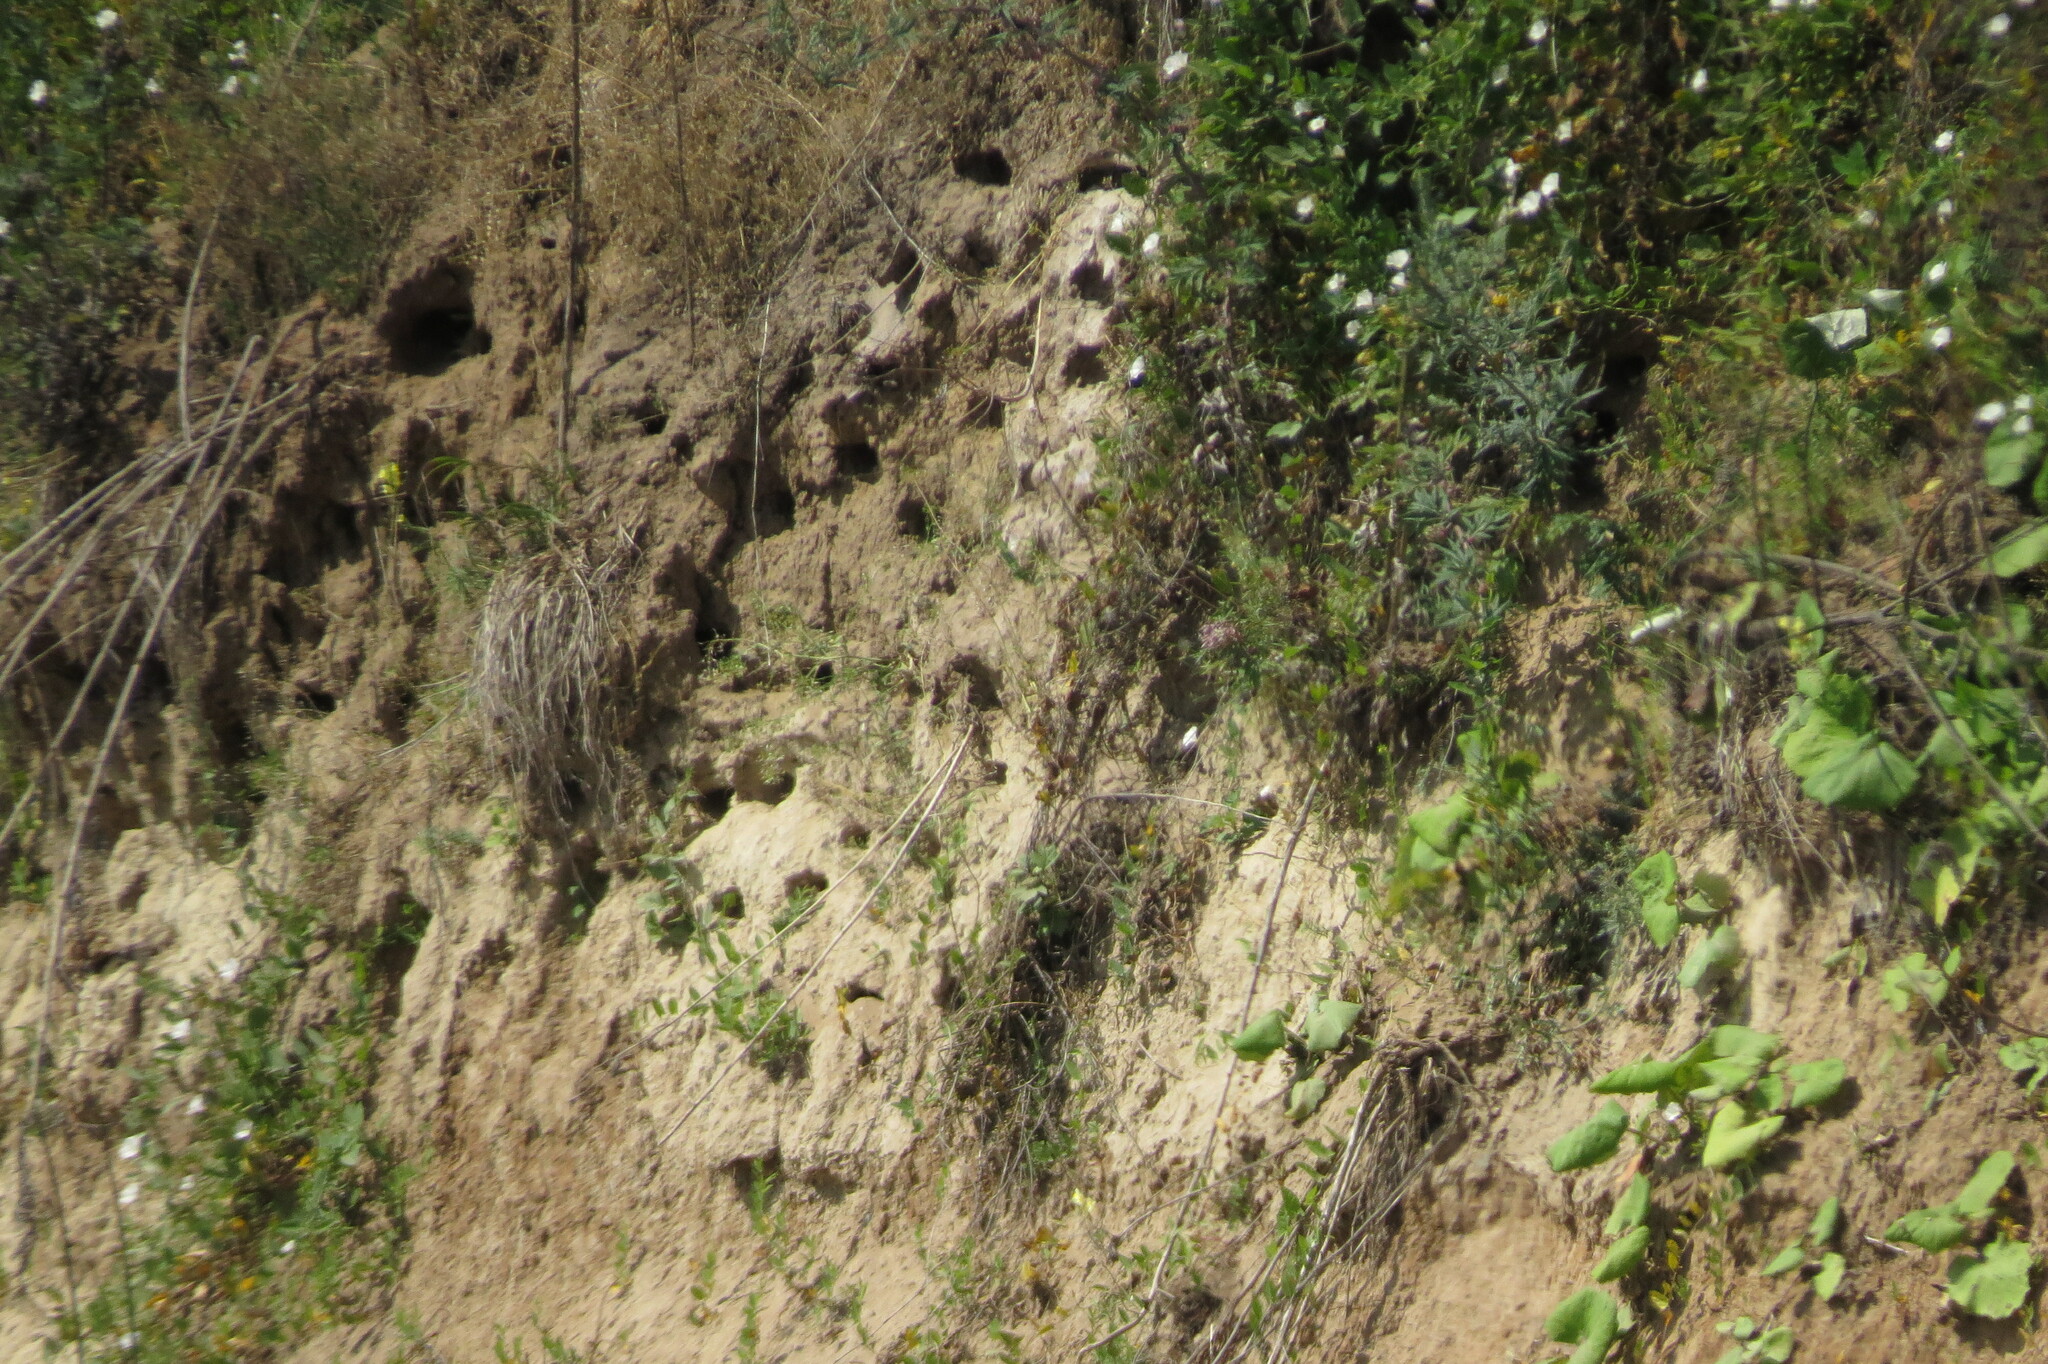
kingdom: Animalia
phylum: Chordata
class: Aves
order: Passeriformes
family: Hirundinidae
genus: Riparia
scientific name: Riparia riparia
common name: Sand martin
